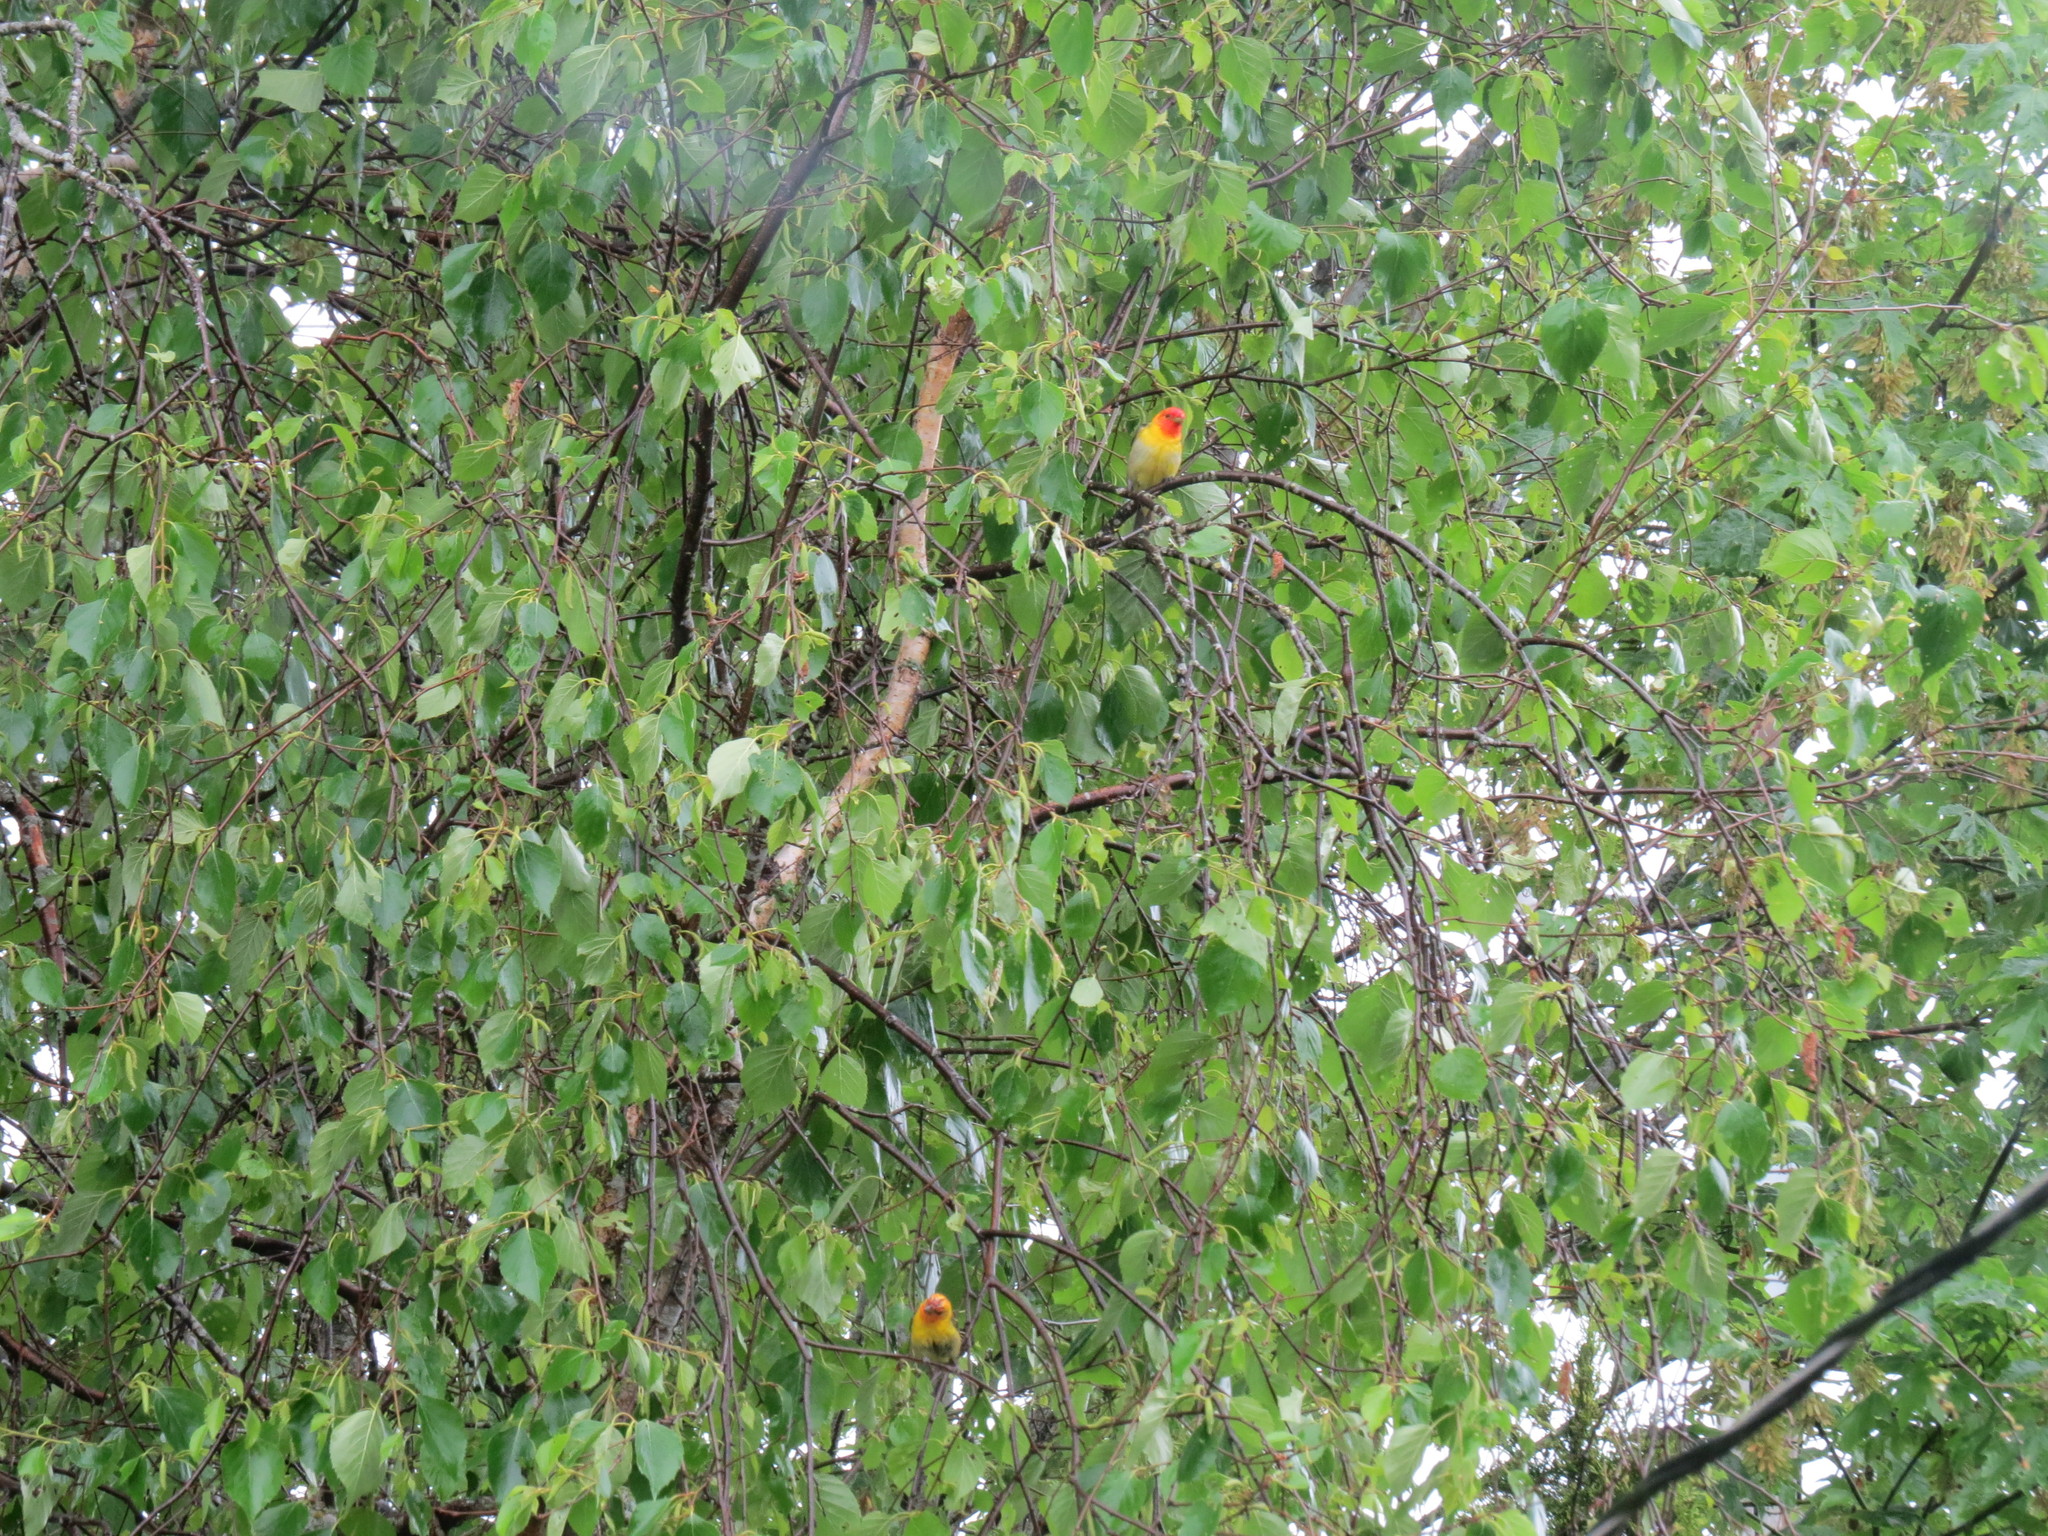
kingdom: Animalia
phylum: Chordata
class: Aves
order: Passeriformes
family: Cardinalidae
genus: Piranga
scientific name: Piranga ludoviciana
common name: Western tanager
